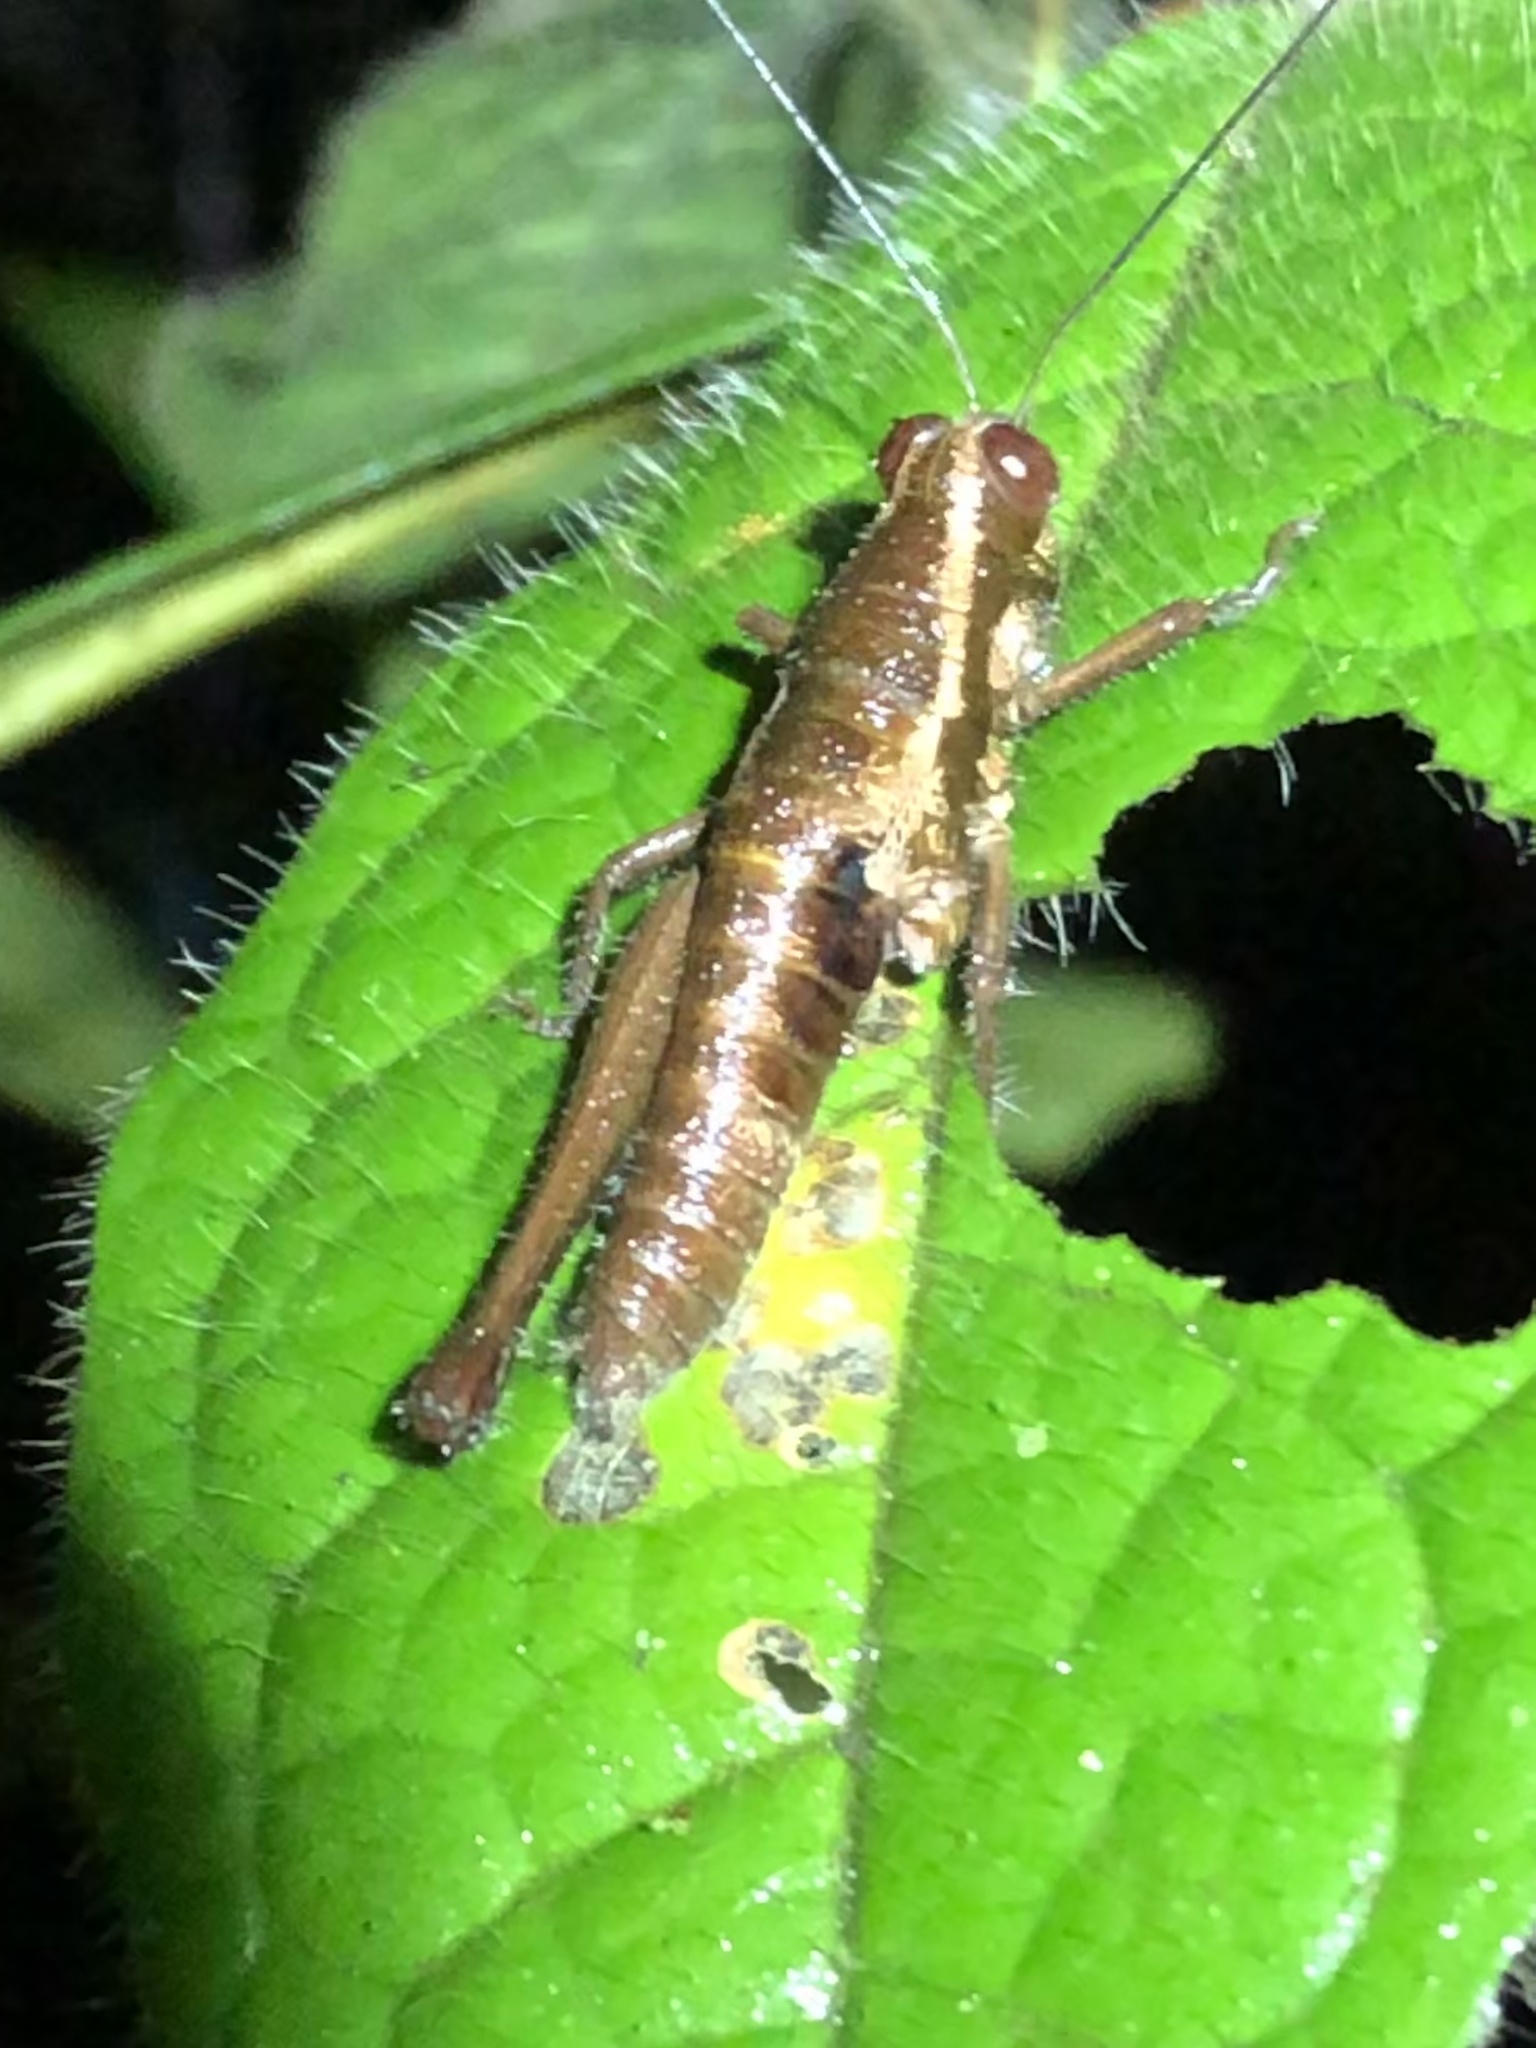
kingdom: Animalia
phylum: Arthropoda
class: Insecta
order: Orthoptera
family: Acrididae
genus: Stenelutracris
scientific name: Stenelutracris lignicola
